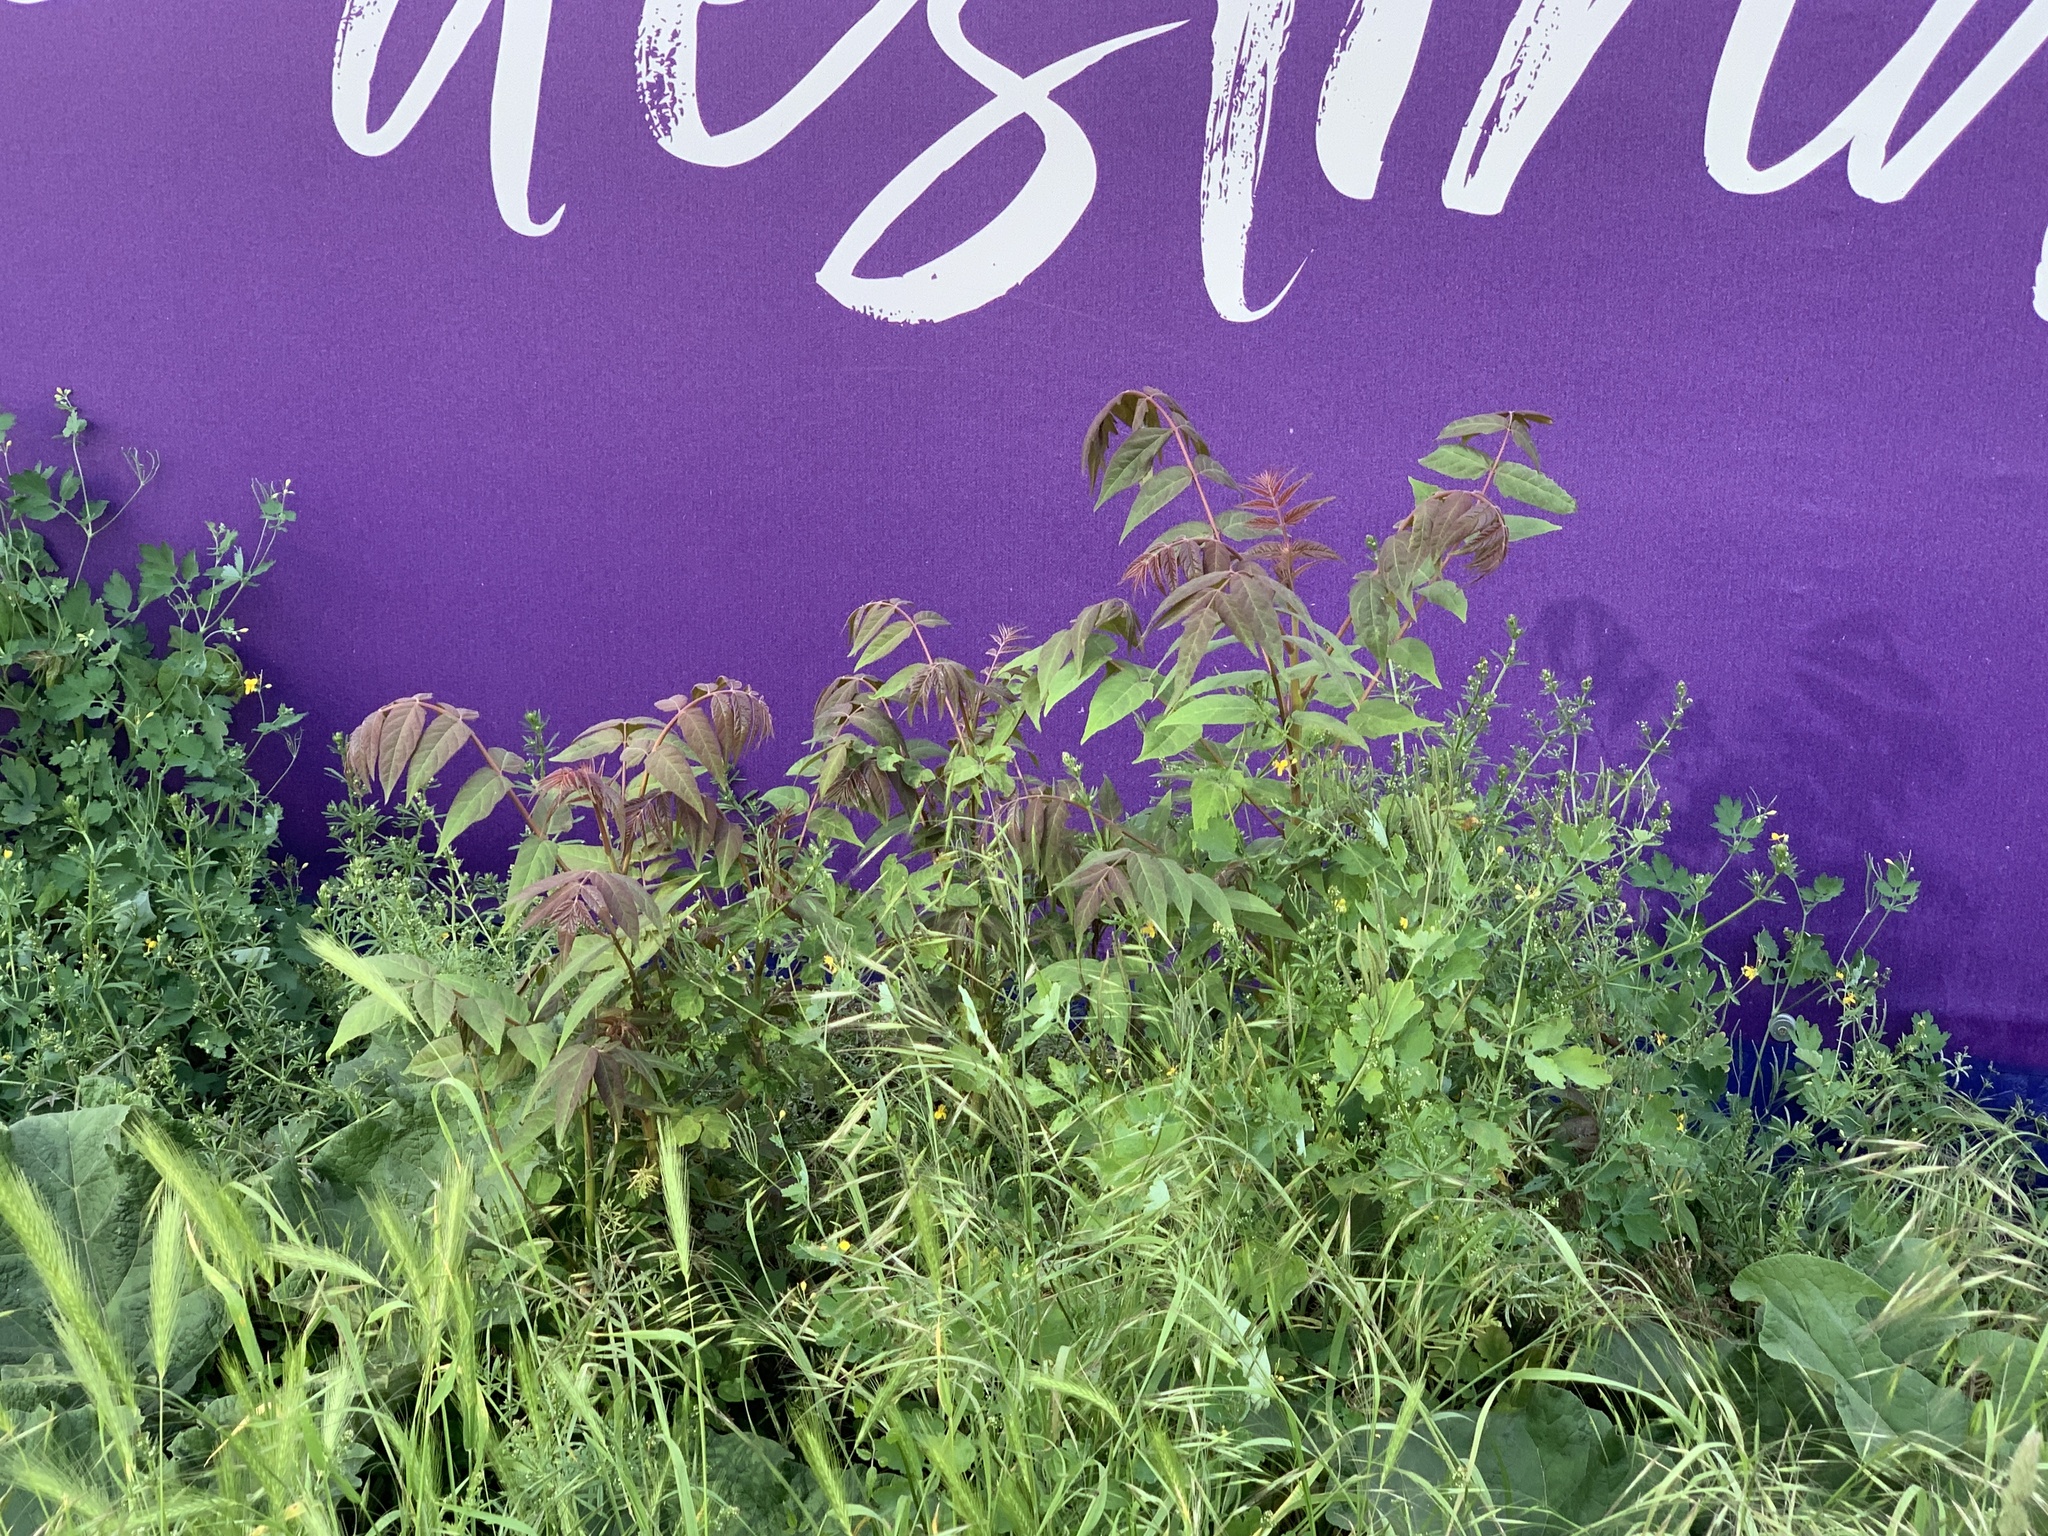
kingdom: Plantae
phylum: Tracheophyta
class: Magnoliopsida
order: Sapindales
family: Simaroubaceae
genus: Ailanthus
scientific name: Ailanthus altissima
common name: Tree-of-heaven
